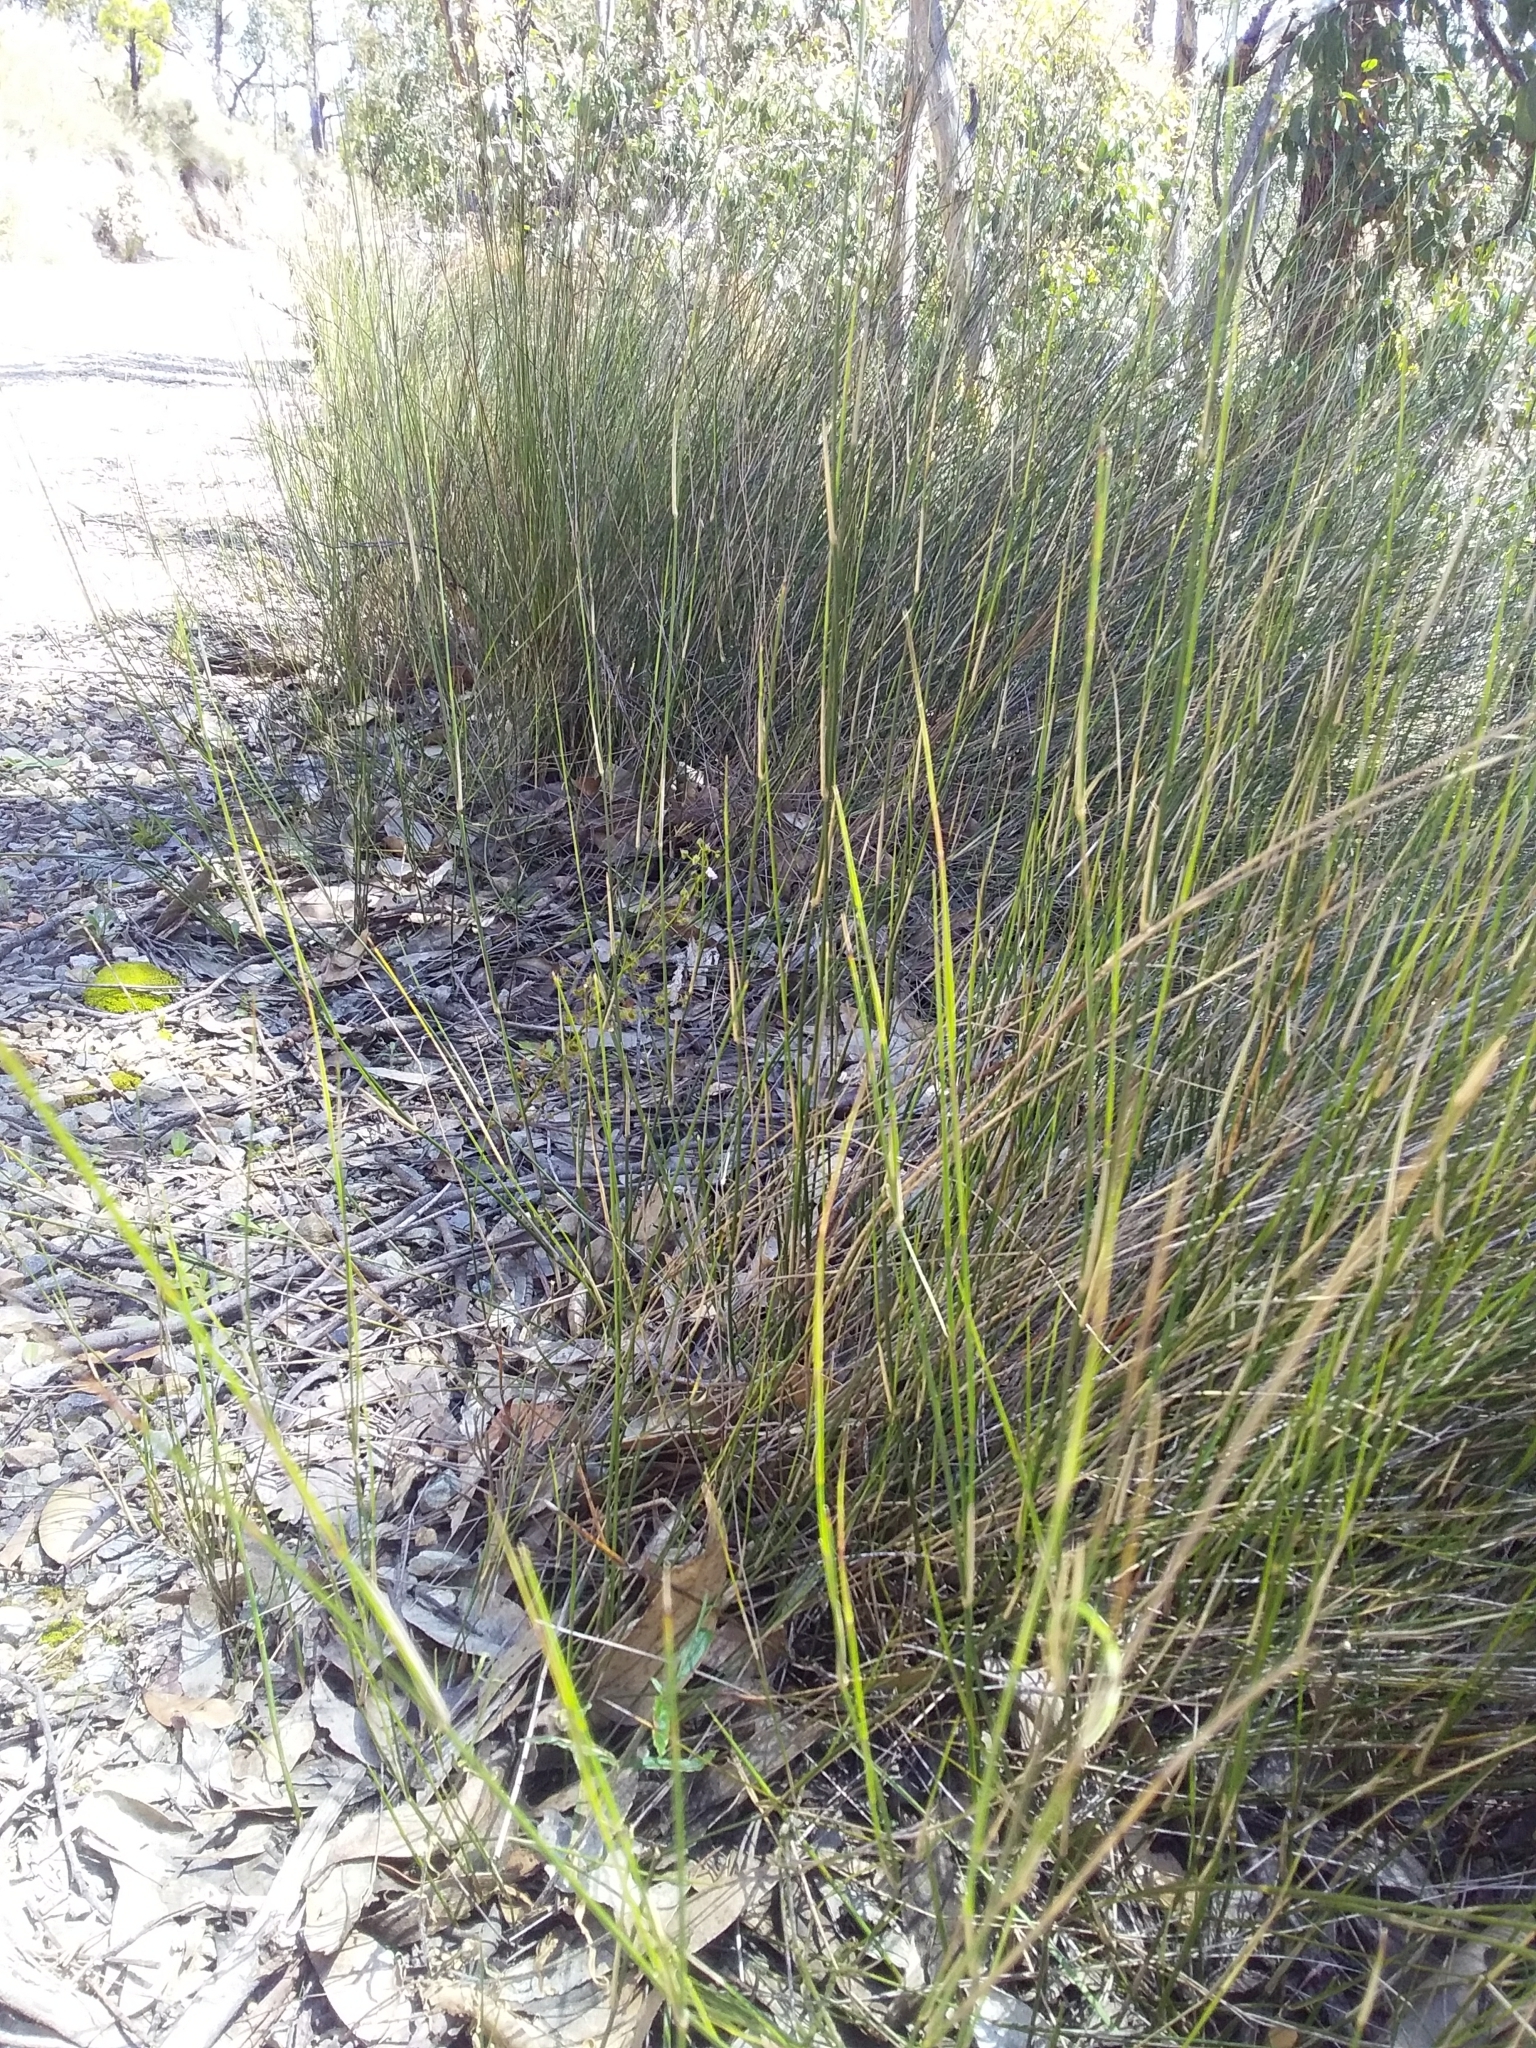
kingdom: Plantae
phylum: Tracheophyta
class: Liliopsida
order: Poales
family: Poaceae
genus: Austrostipa
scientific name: Austrostipa muelleri
